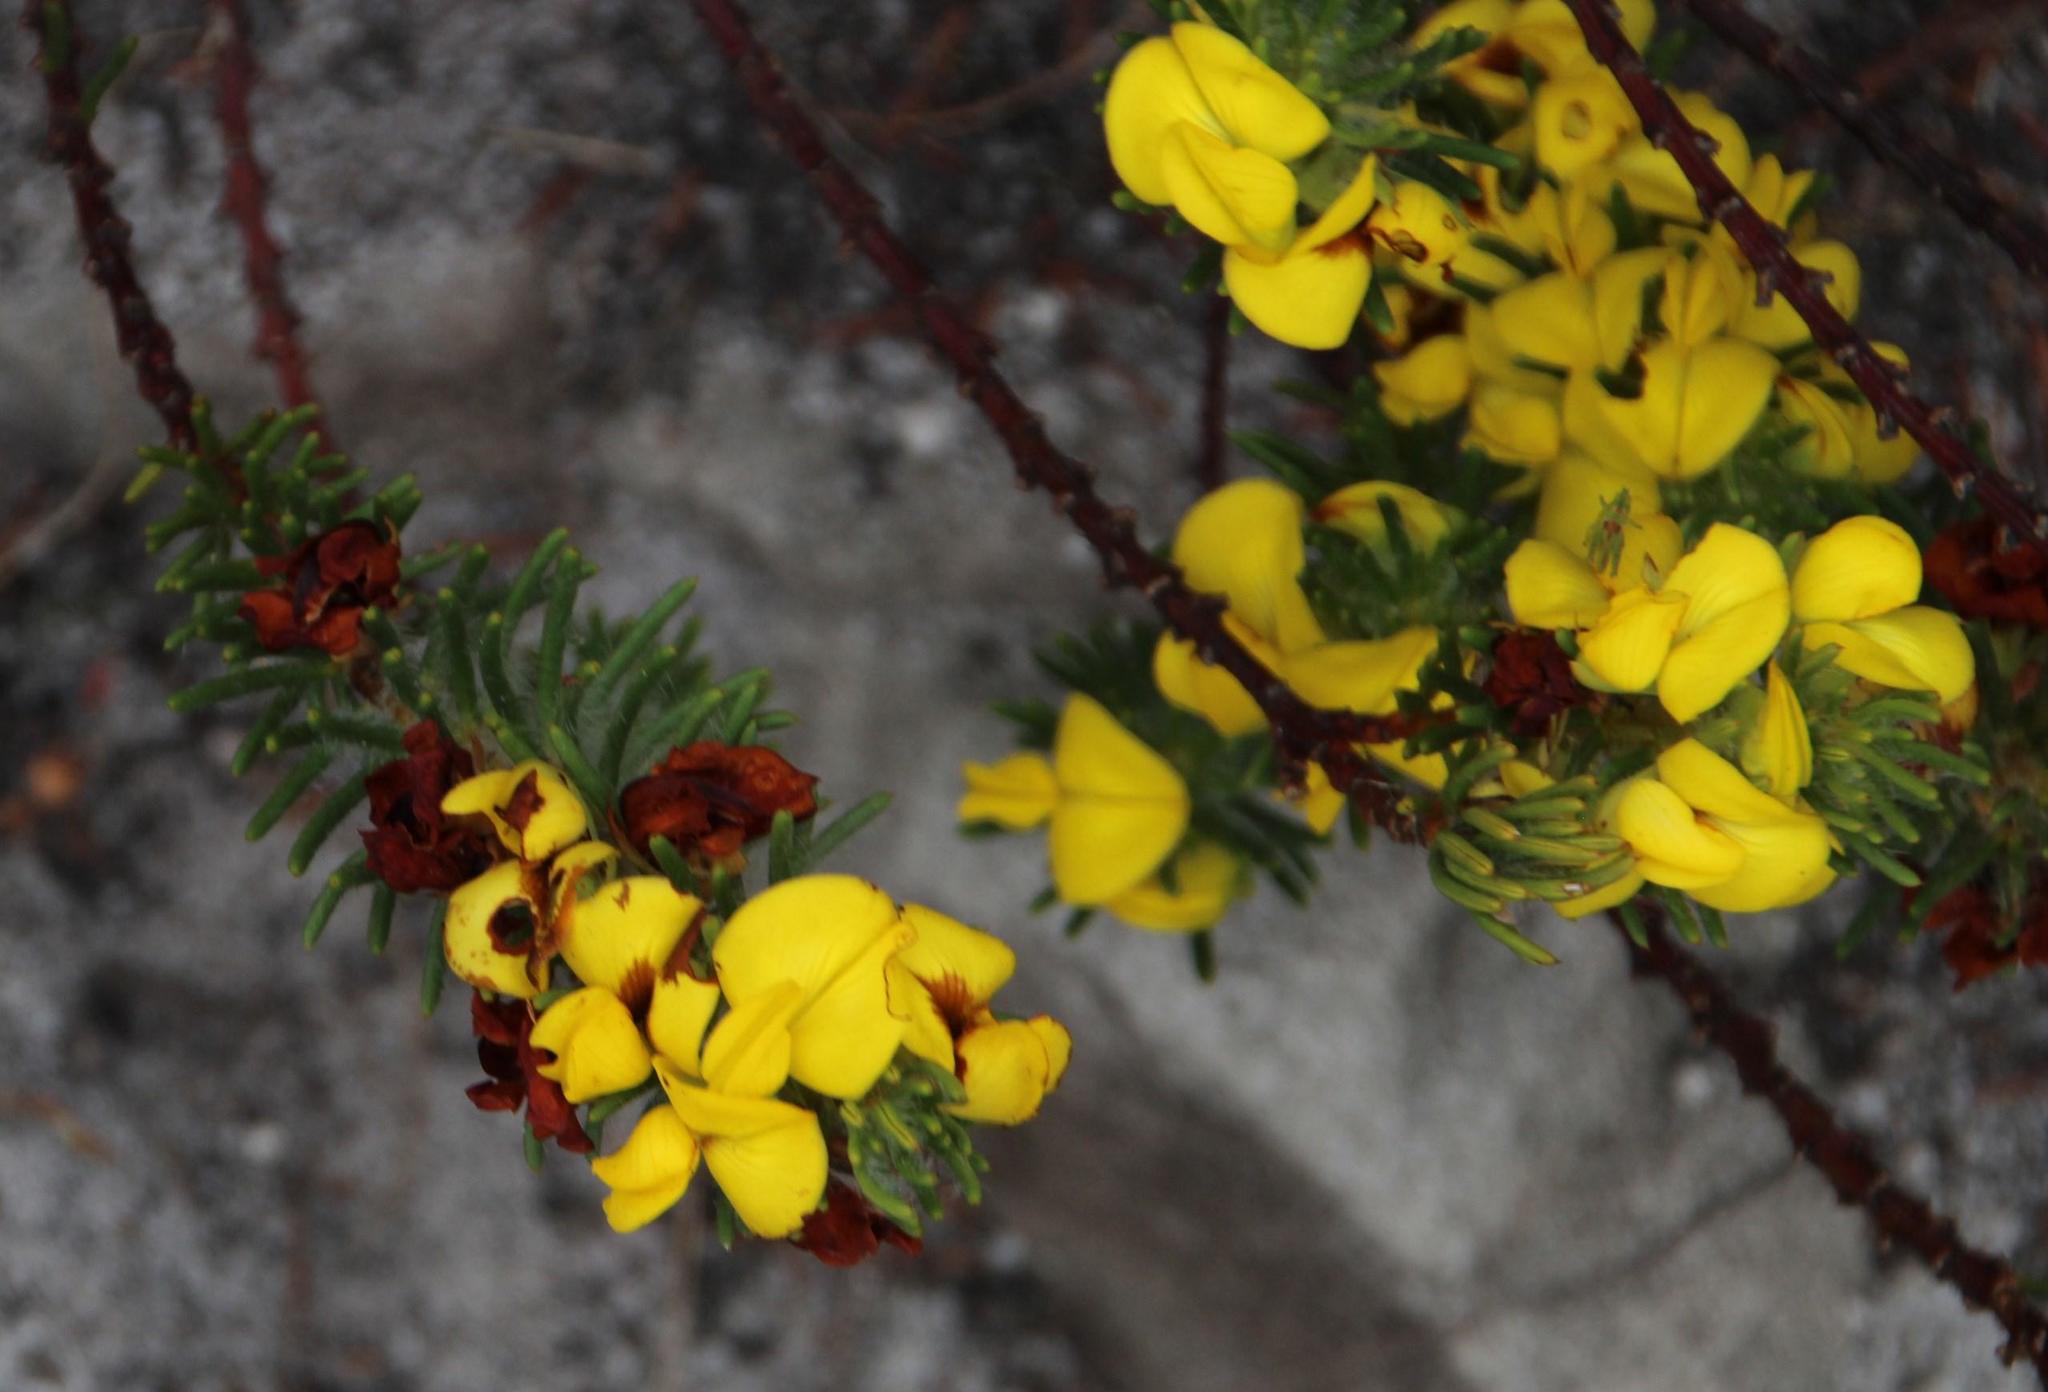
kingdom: Plantae
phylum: Tracheophyta
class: Magnoliopsida
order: Fabales
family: Fabaceae
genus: Cyclopia
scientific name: Cyclopia galioides
